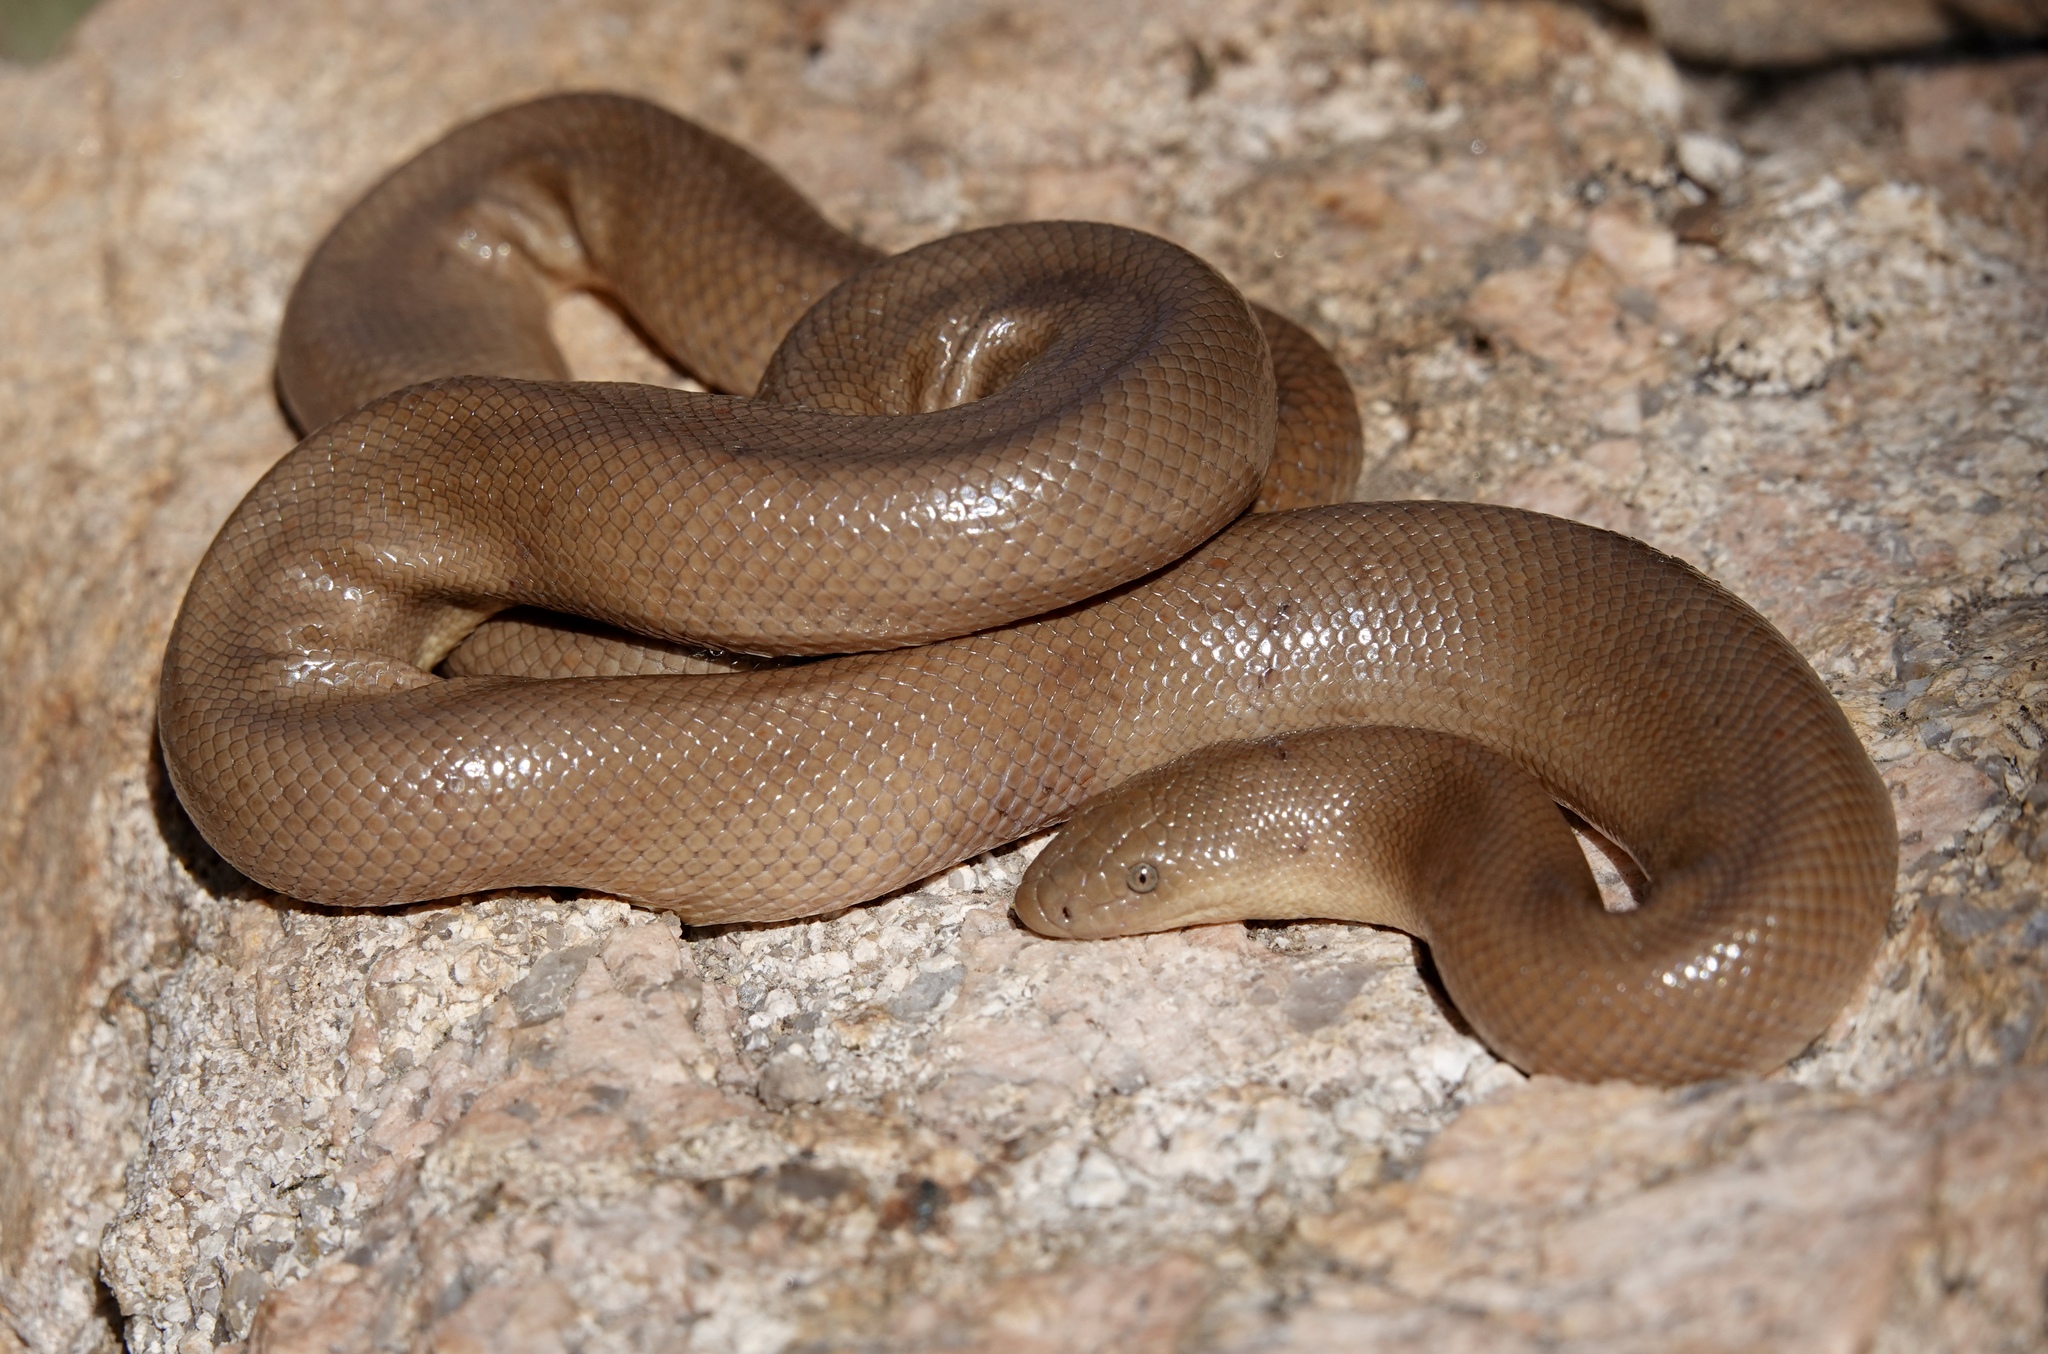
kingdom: Animalia
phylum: Chordata
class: Squamata
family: Boidae
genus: Charina
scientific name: Charina umbratica
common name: Southern rubber boa
